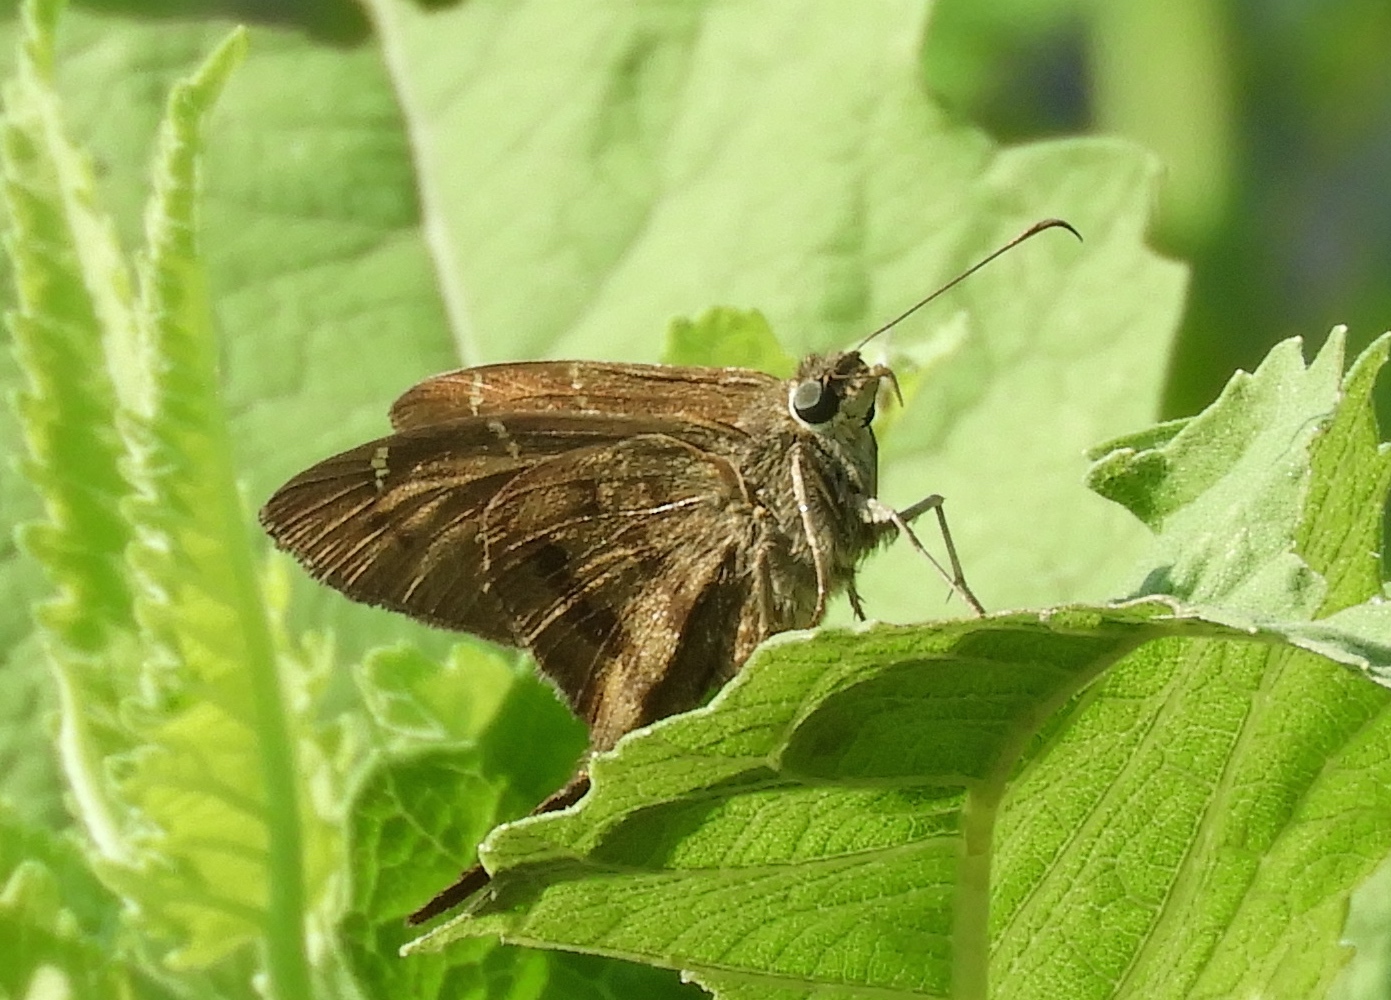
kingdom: Animalia
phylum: Arthropoda
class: Insecta
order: Lepidoptera
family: Hesperiidae
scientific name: Hesperiidae
